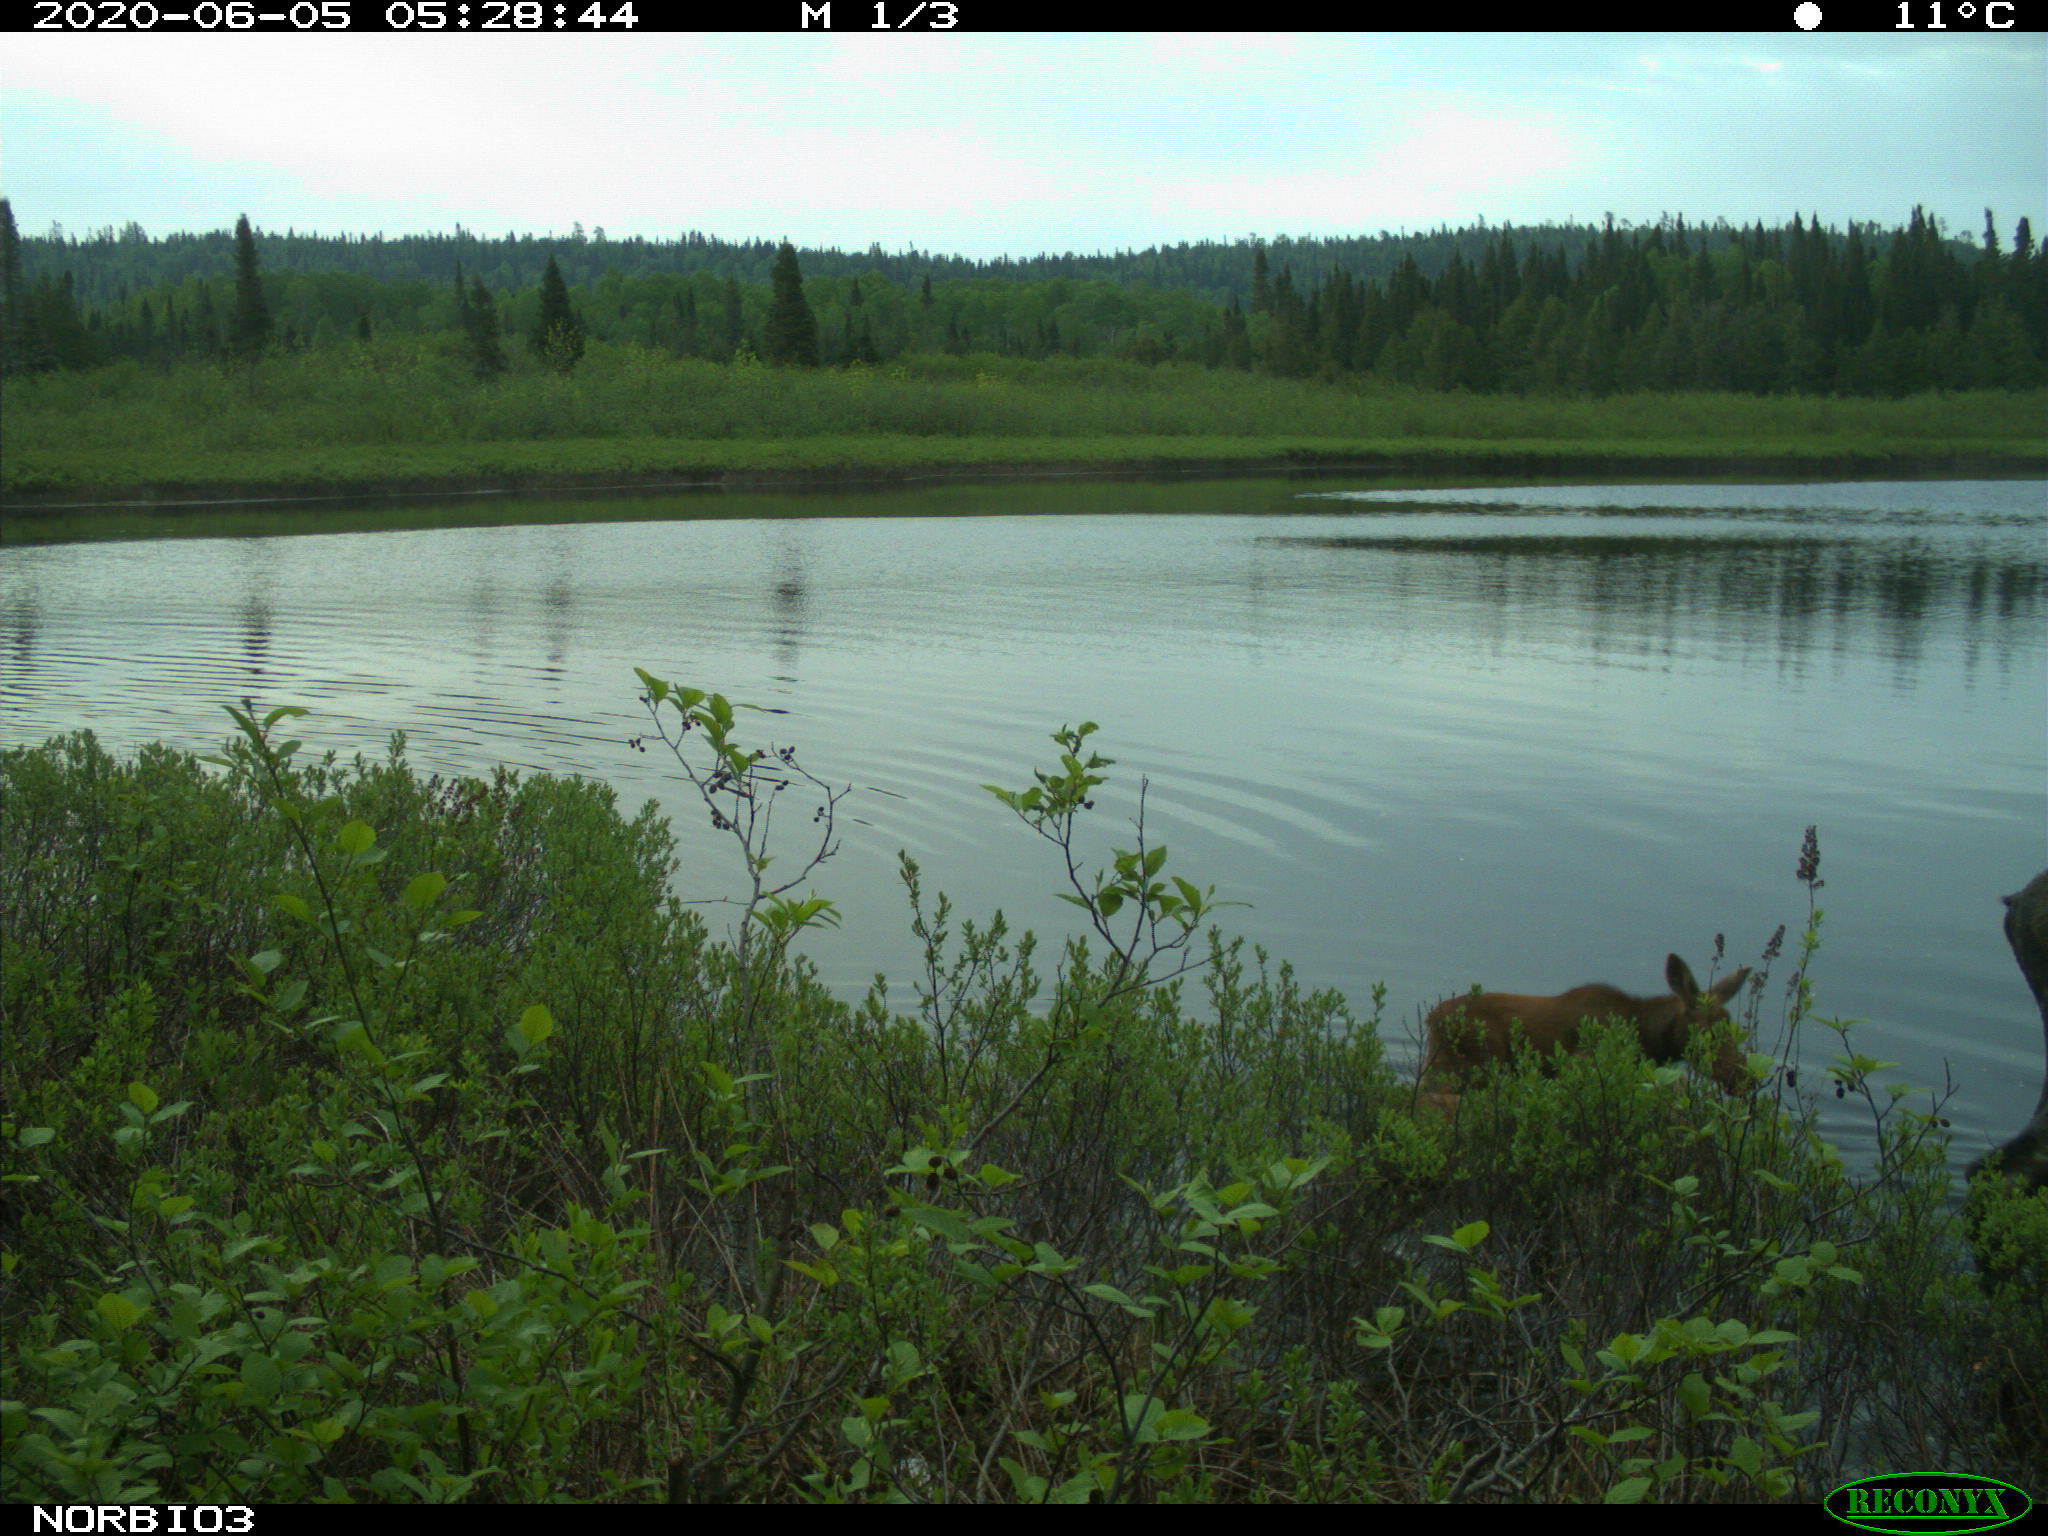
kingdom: Animalia
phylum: Chordata
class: Mammalia
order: Artiodactyla
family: Cervidae
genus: Alces
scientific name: Alces alces
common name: Moose
